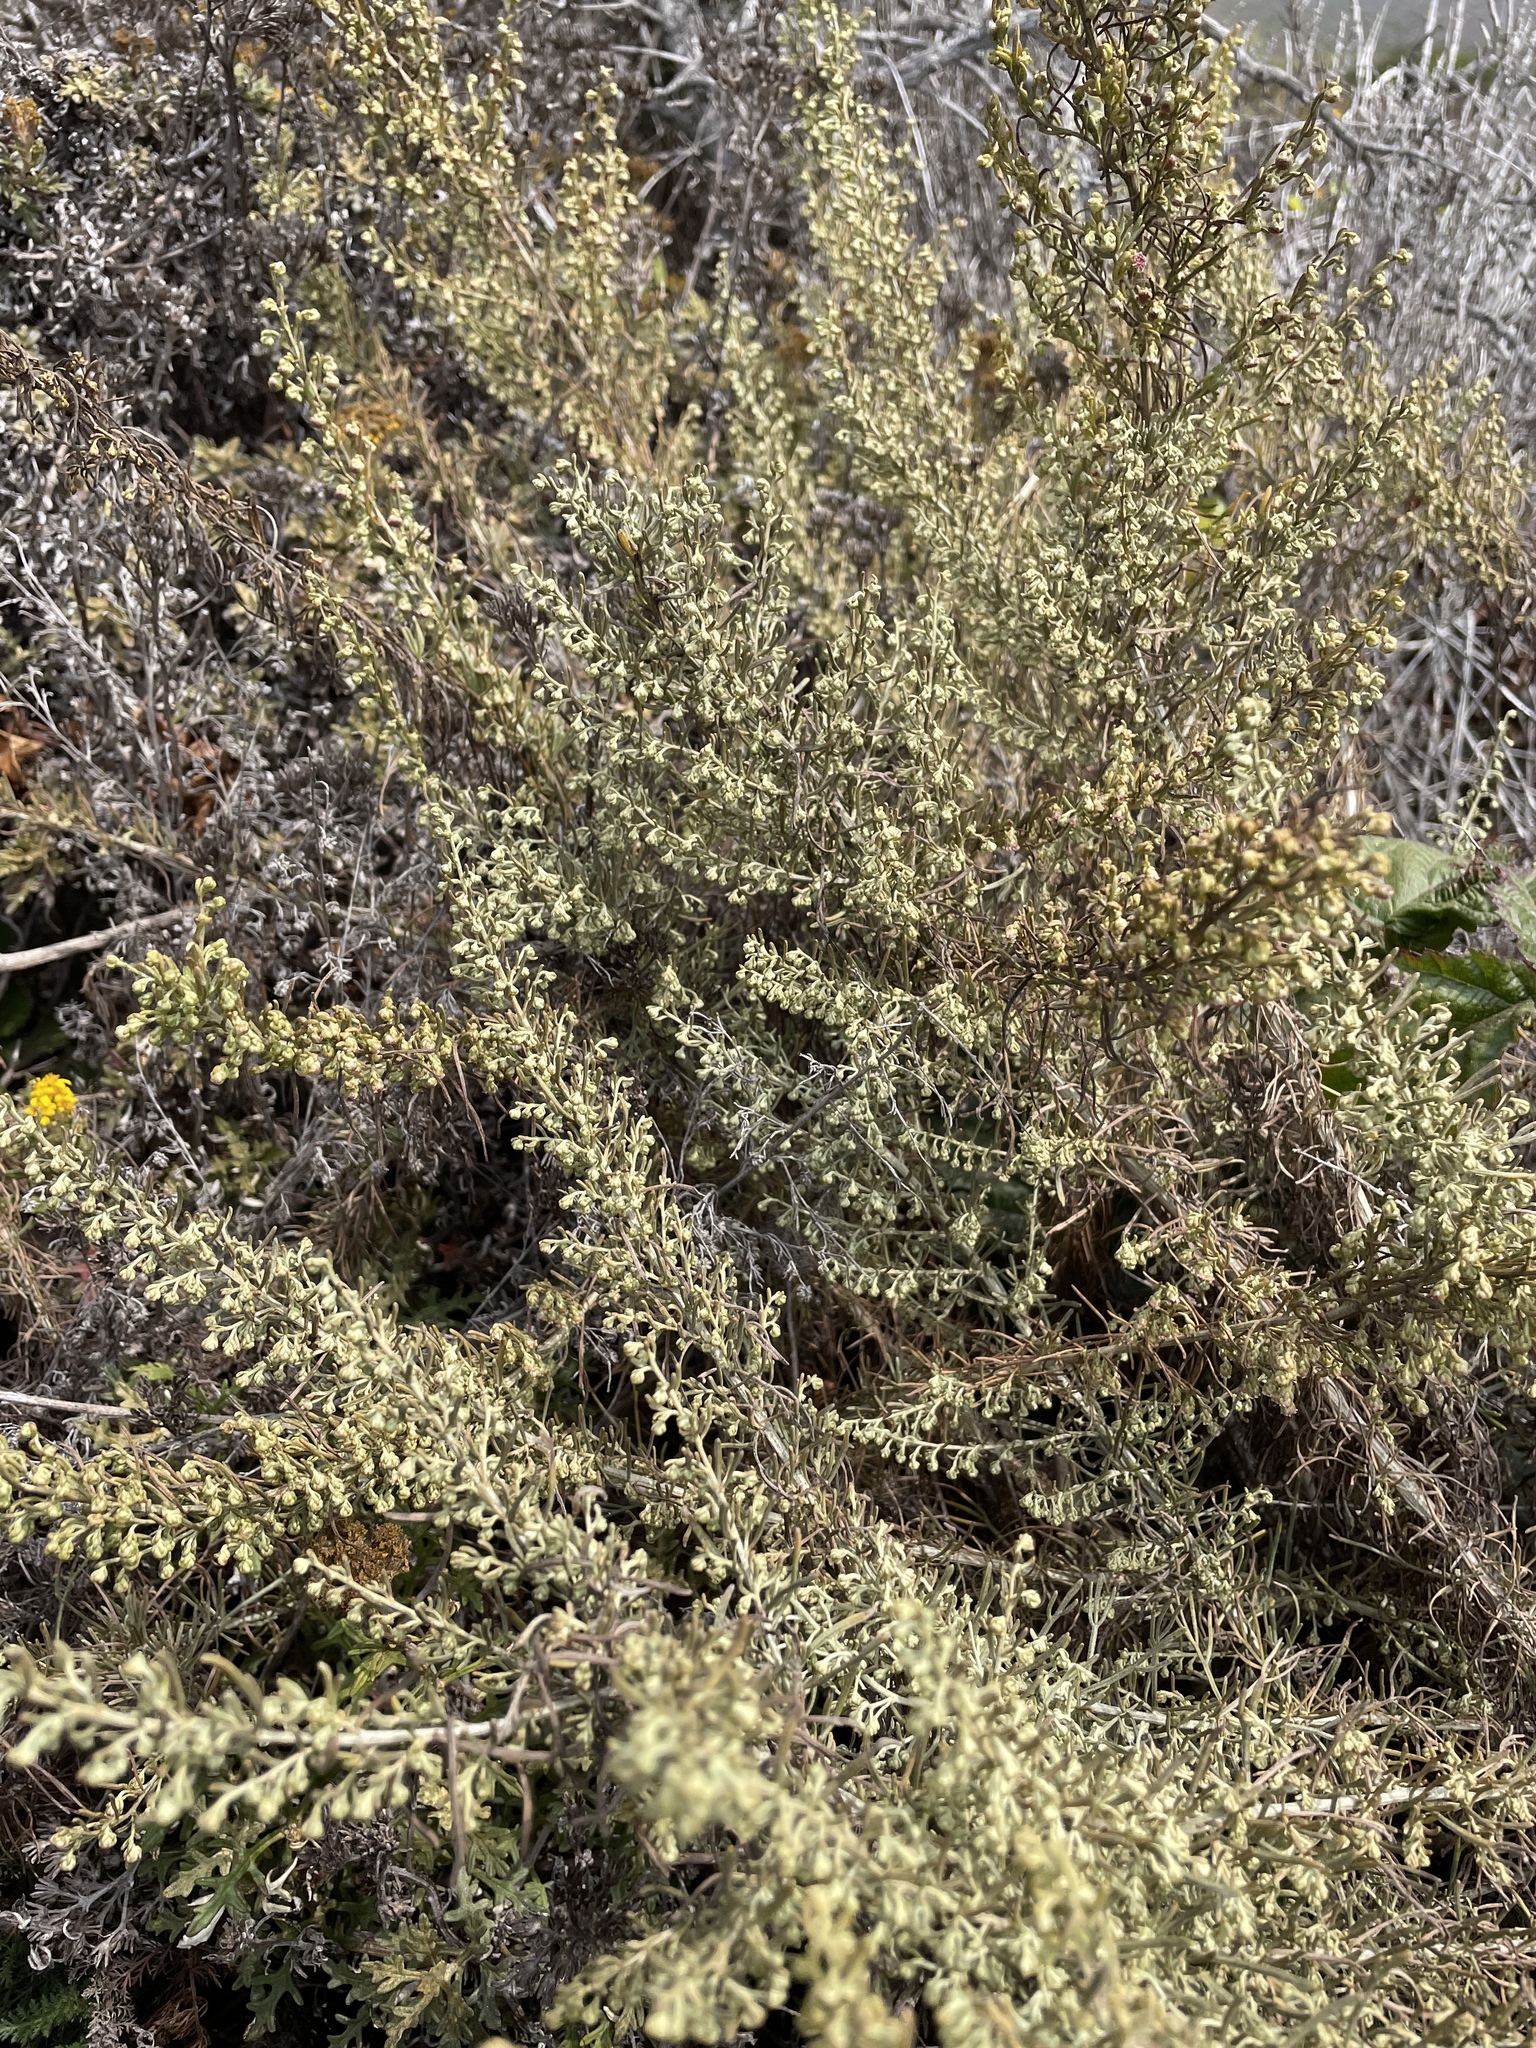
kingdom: Plantae
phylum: Tracheophyta
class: Magnoliopsida
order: Asterales
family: Asteraceae
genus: Artemisia
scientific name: Artemisia californica
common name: California sagebrush
